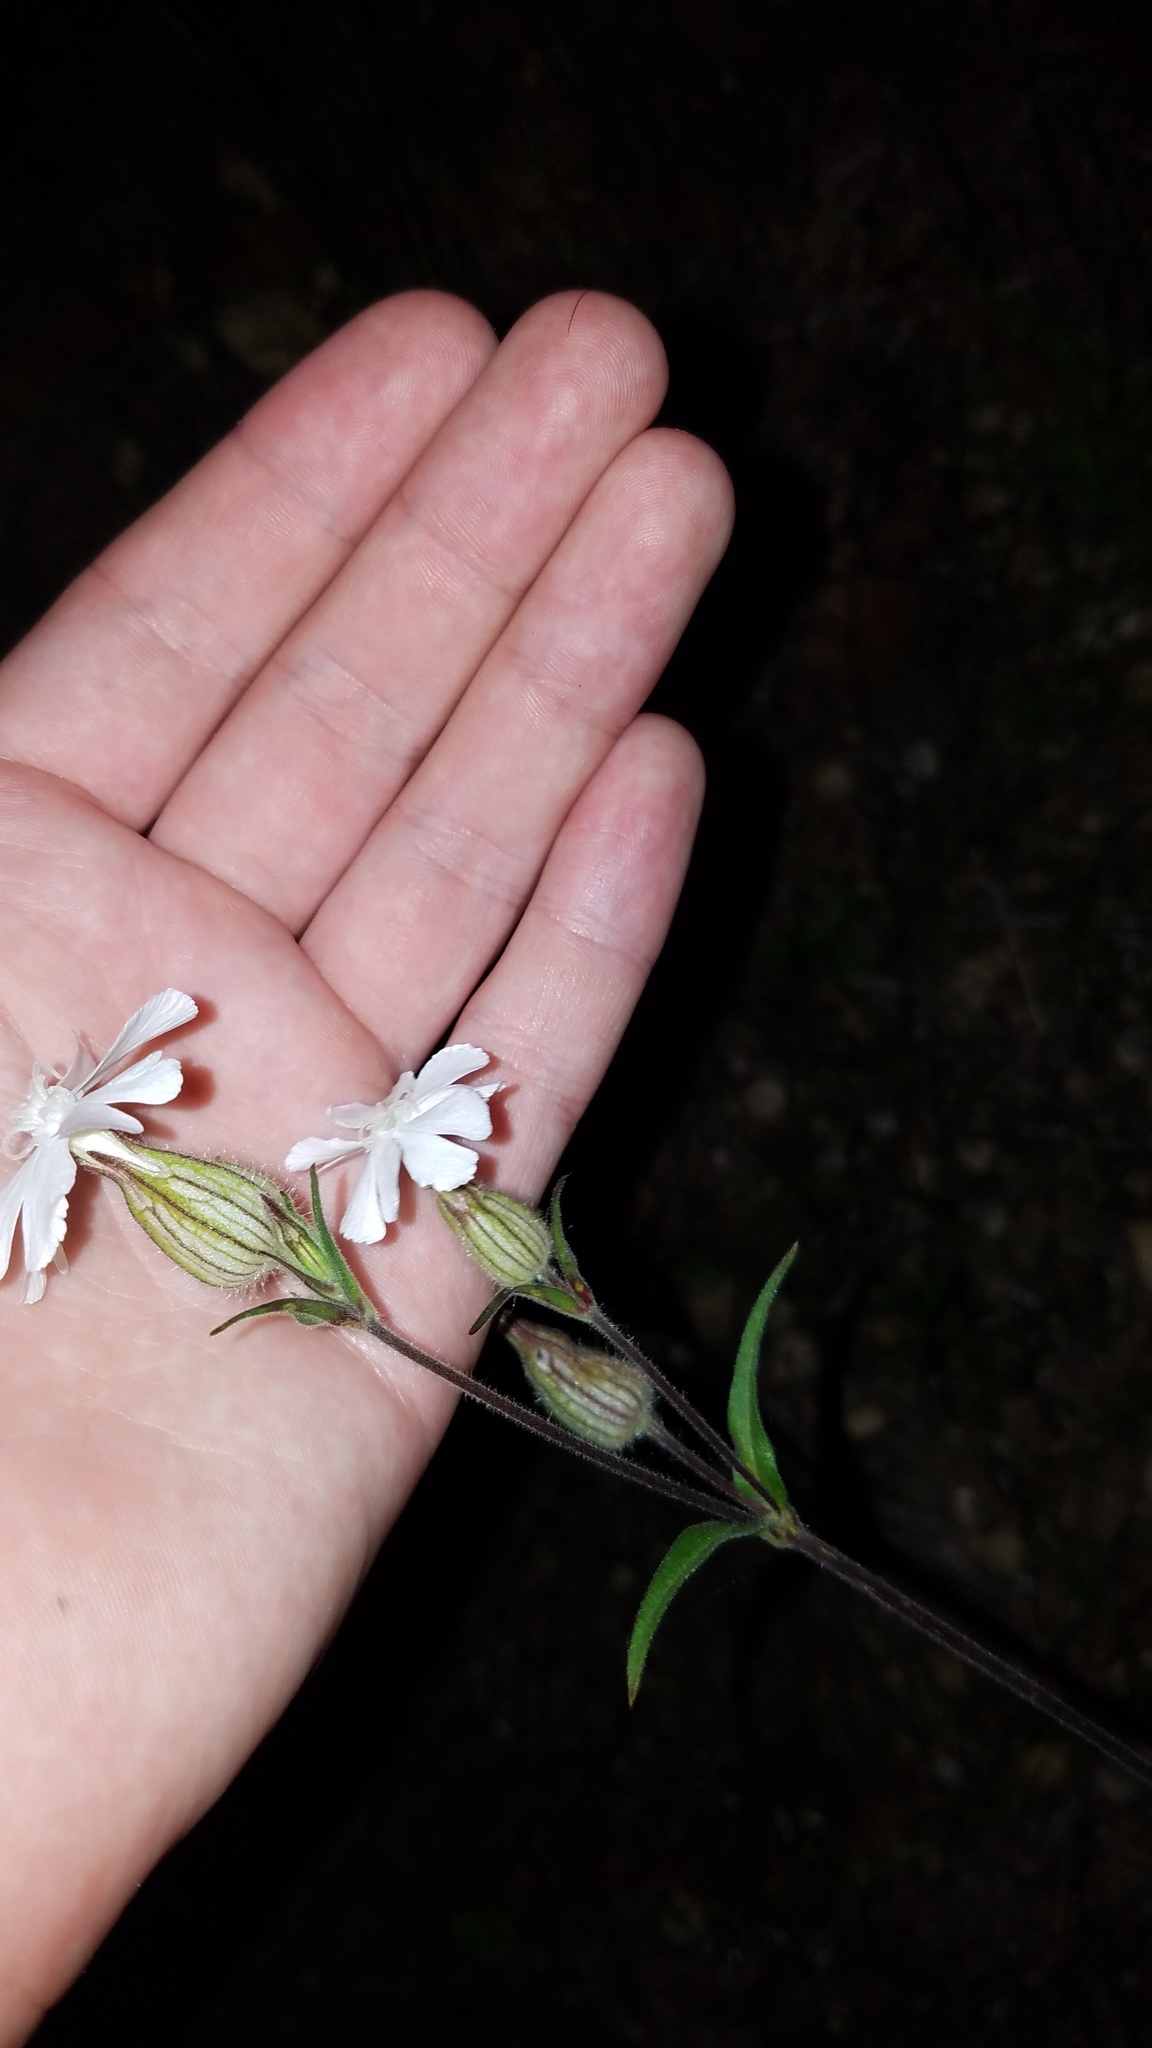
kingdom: Plantae
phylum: Tracheophyta
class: Magnoliopsida
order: Caryophyllales
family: Caryophyllaceae
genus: Silene
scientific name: Silene latifolia
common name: White campion
